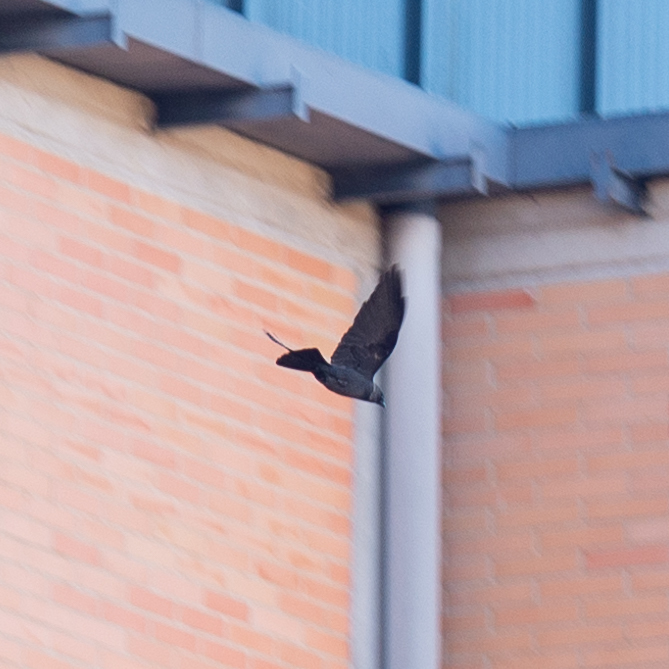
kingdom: Animalia
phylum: Chordata
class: Aves
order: Passeriformes
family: Corvidae
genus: Coloeus
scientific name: Coloeus monedula
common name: Western jackdaw
